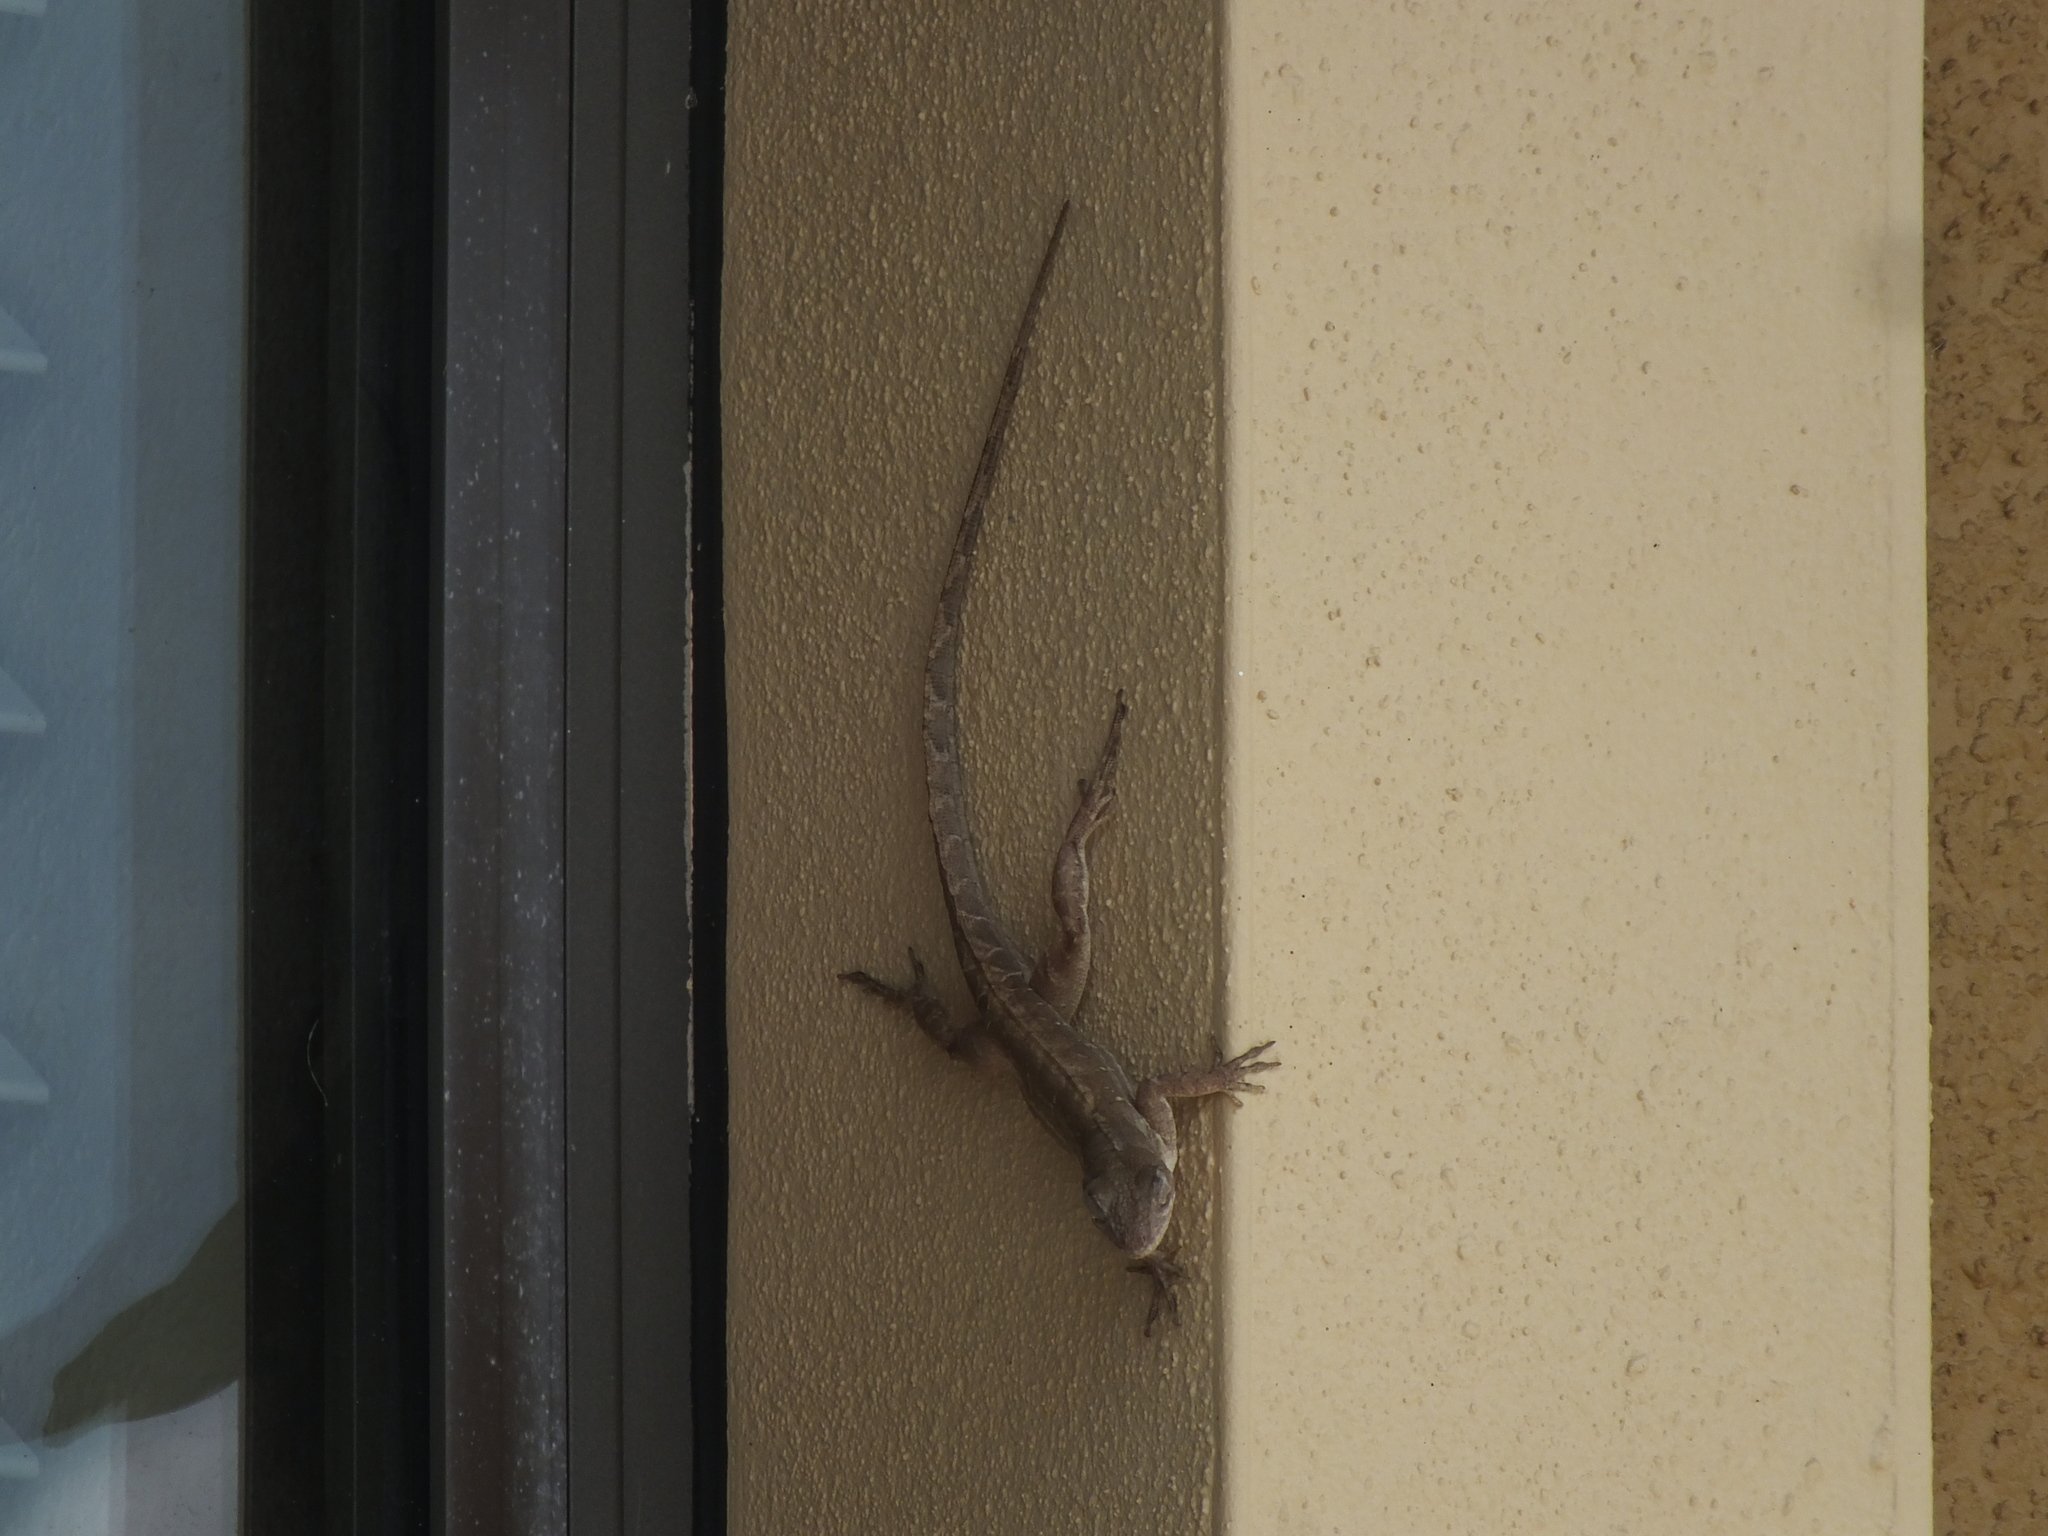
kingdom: Animalia
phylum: Chordata
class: Squamata
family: Dactyloidae
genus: Anolis
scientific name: Anolis sagrei
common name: Brown anole
